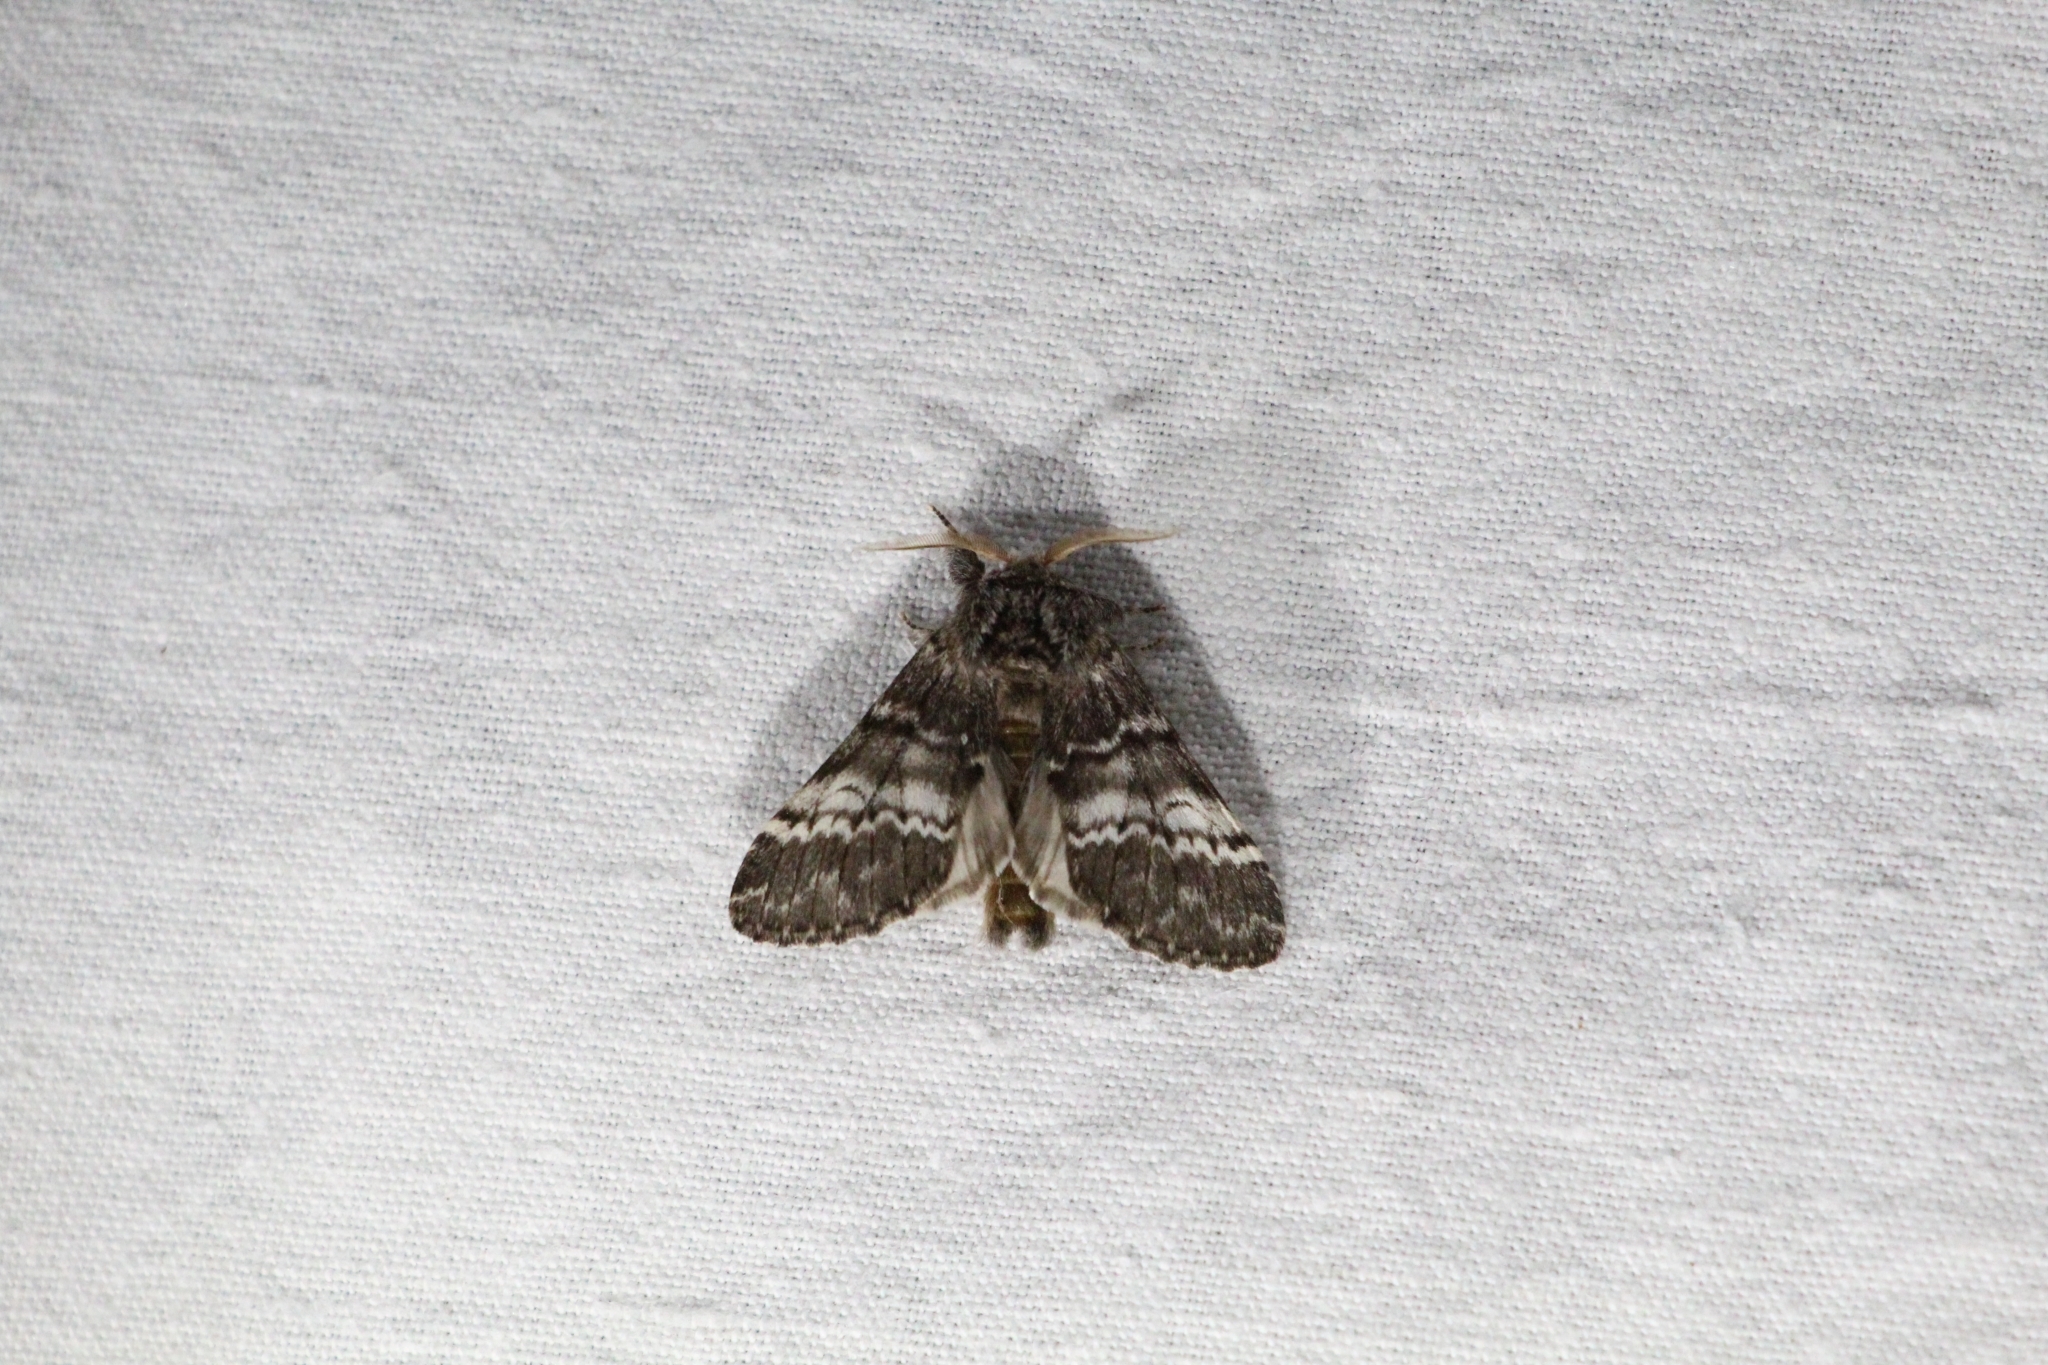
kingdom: Animalia
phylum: Arthropoda
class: Insecta
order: Lepidoptera
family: Notodontidae
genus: Drymonia
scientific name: Drymonia ruficornis
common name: Lunar marbled brown
